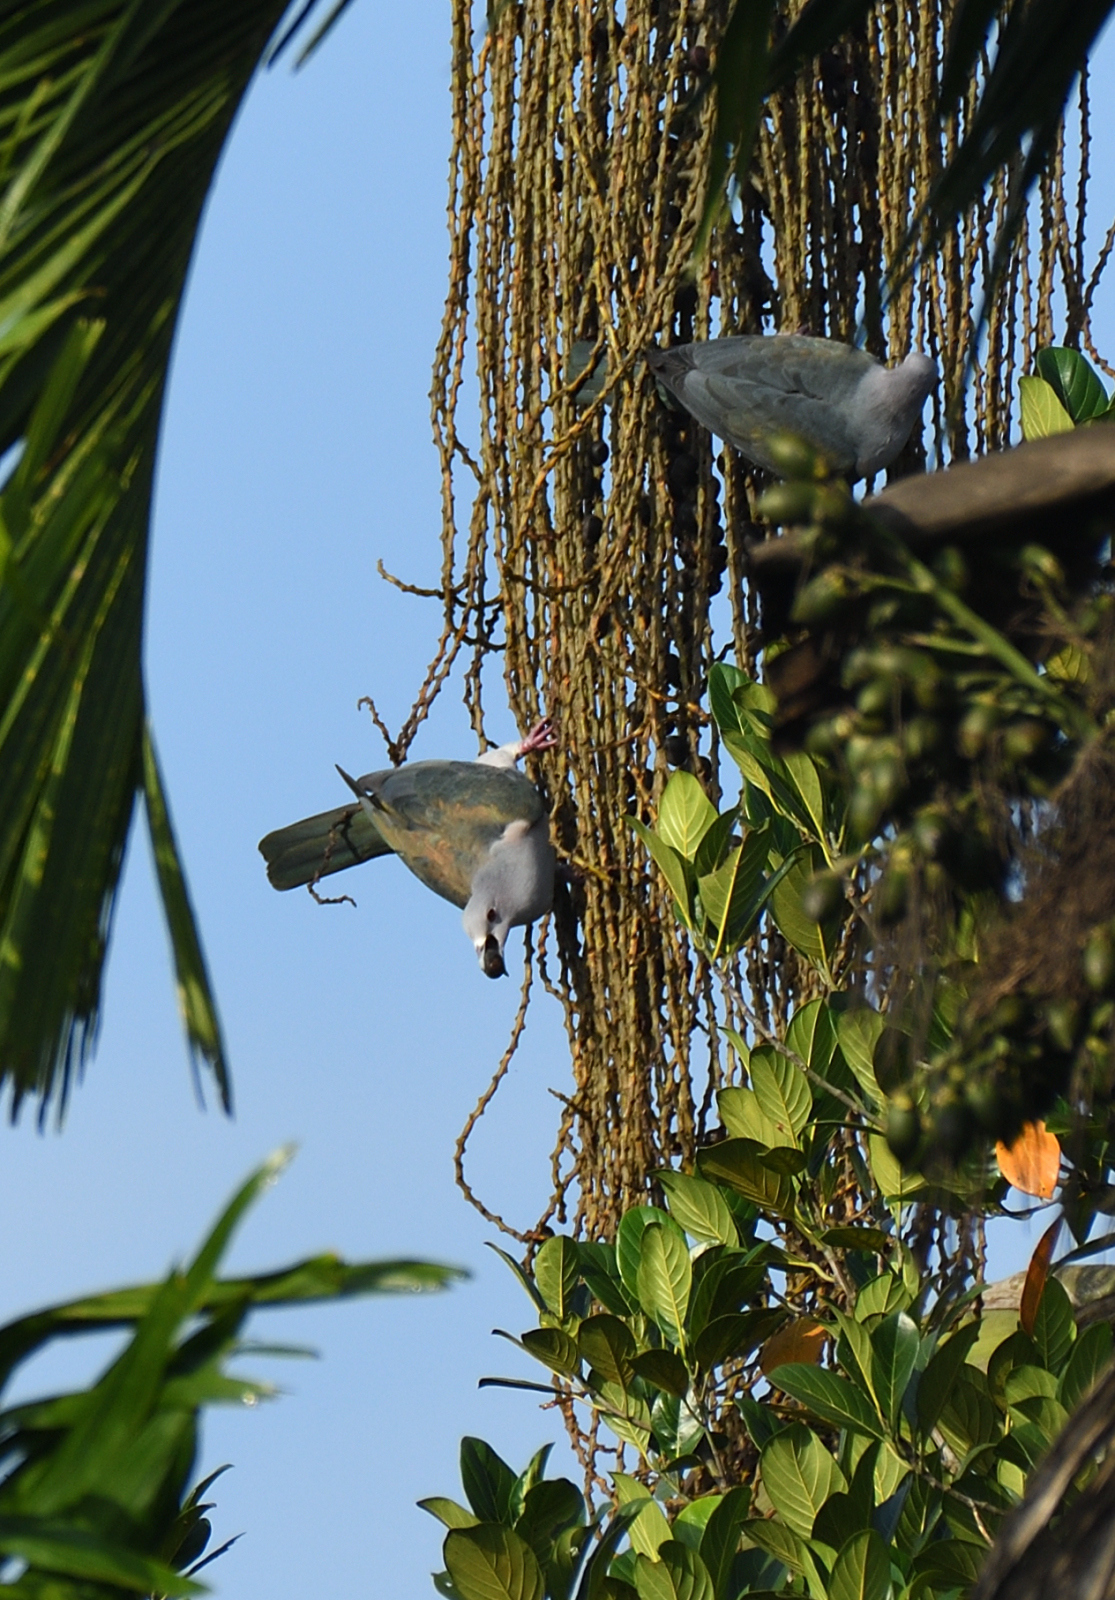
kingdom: Animalia
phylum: Chordata
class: Aves
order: Columbiformes
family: Columbidae
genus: Ducula
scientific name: Ducula aenea
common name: Green imperial pigeon
